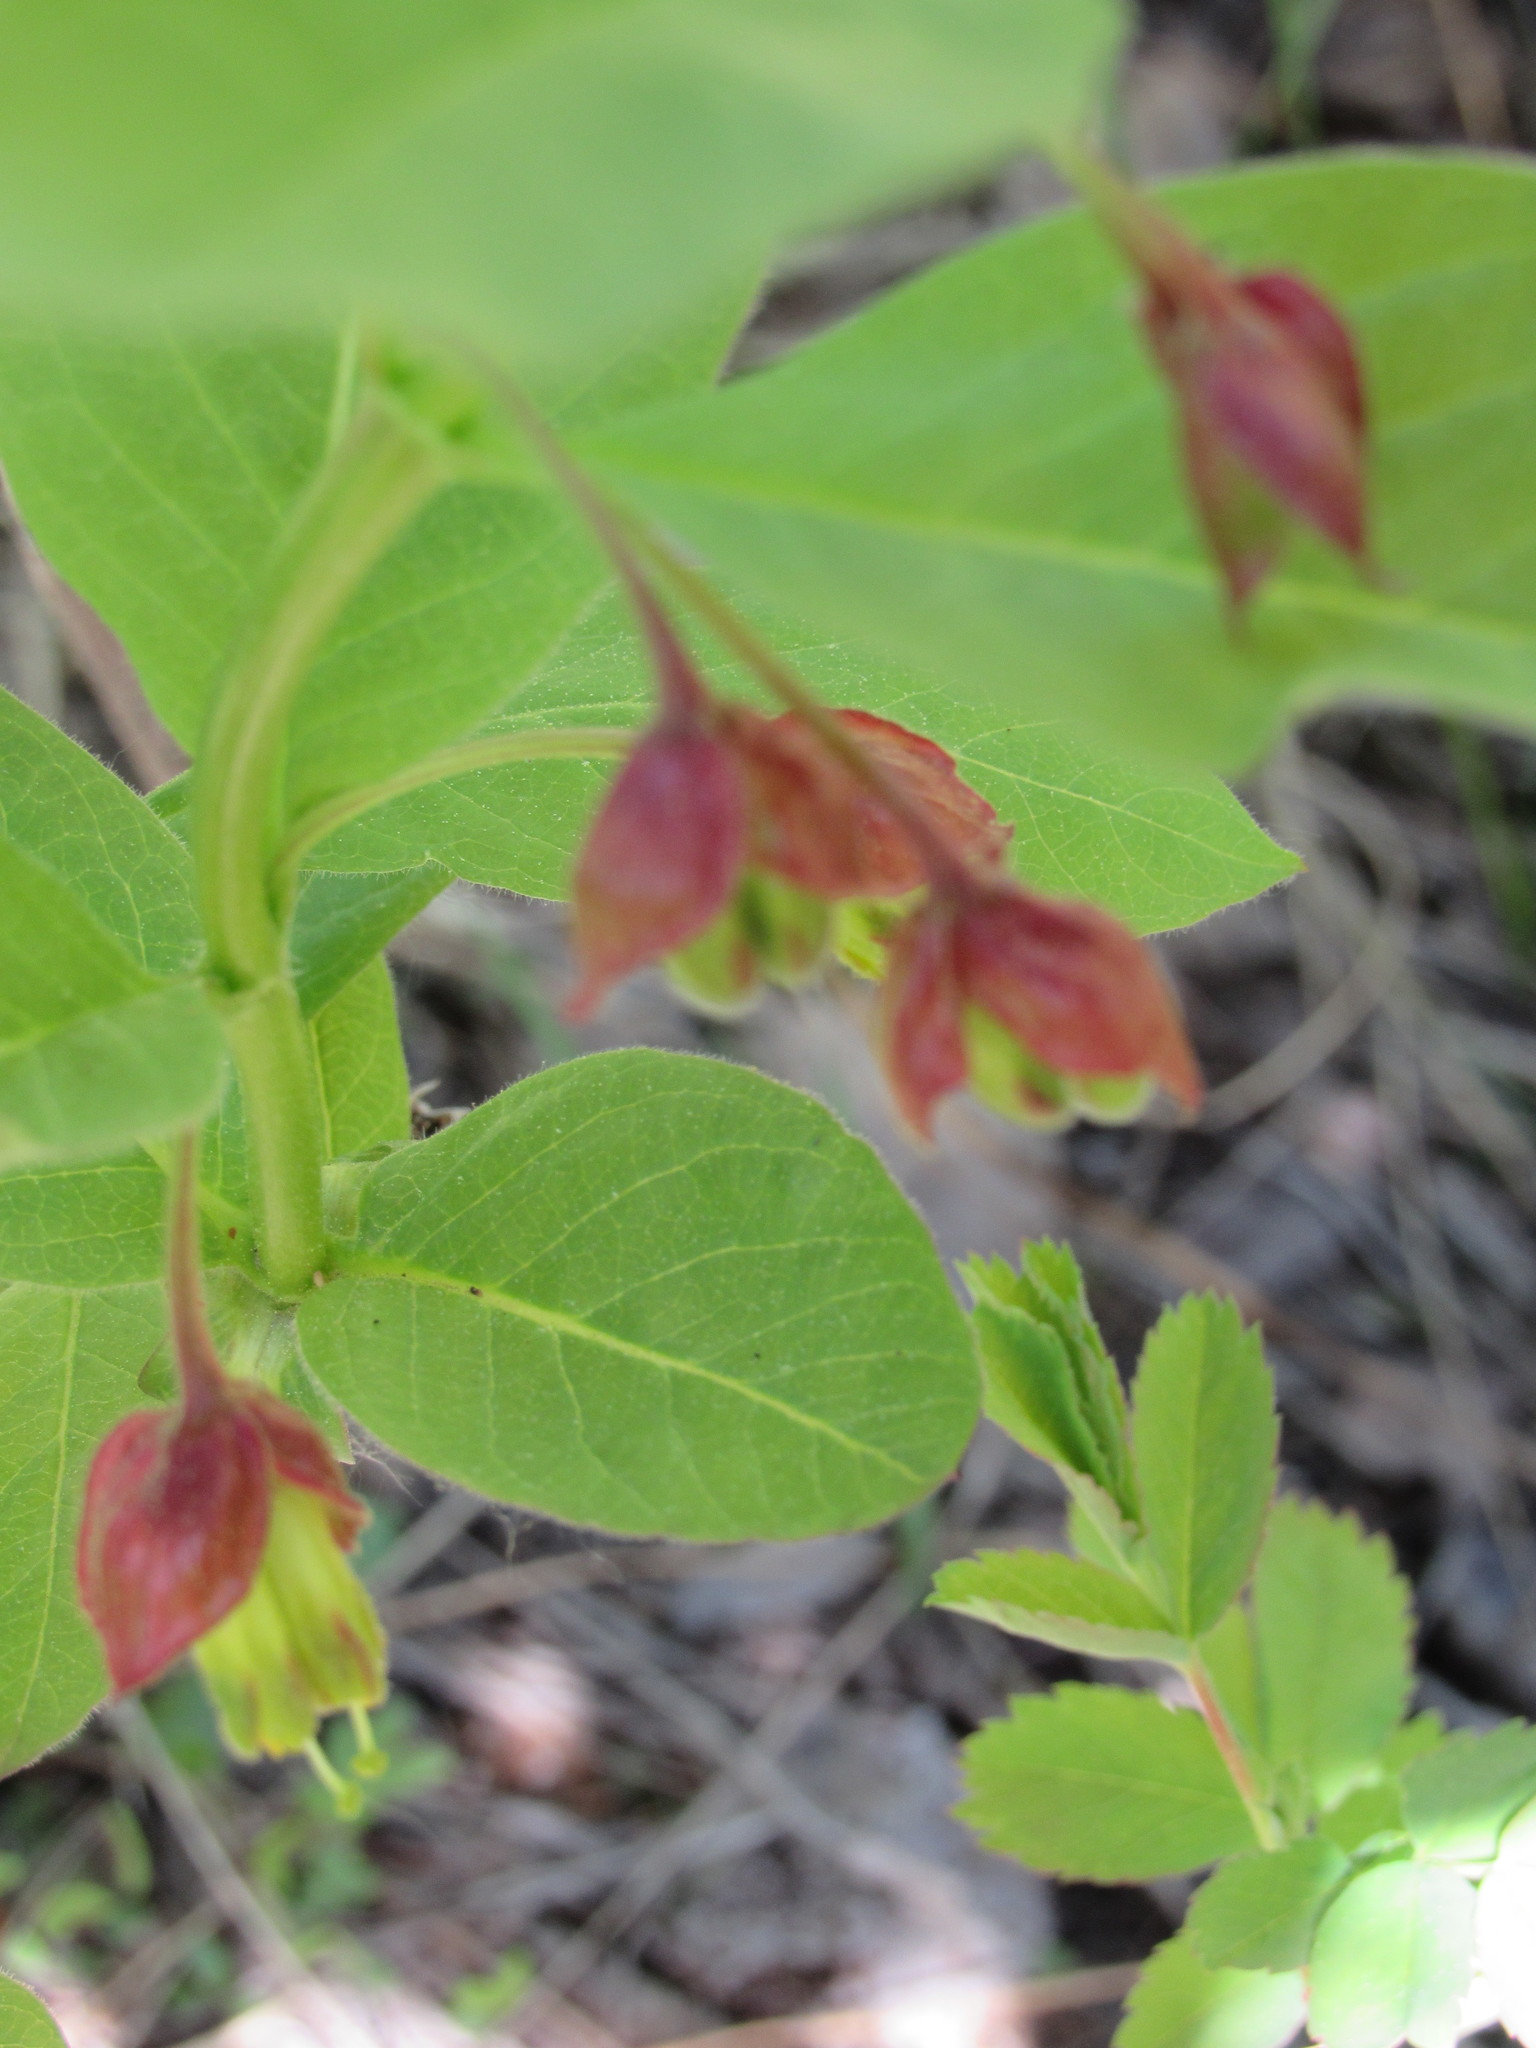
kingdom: Plantae
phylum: Tracheophyta
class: Magnoliopsida
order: Dipsacales
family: Caprifoliaceae
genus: Lonicera
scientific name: Lonicera involucrata
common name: Californian honeysuckle
